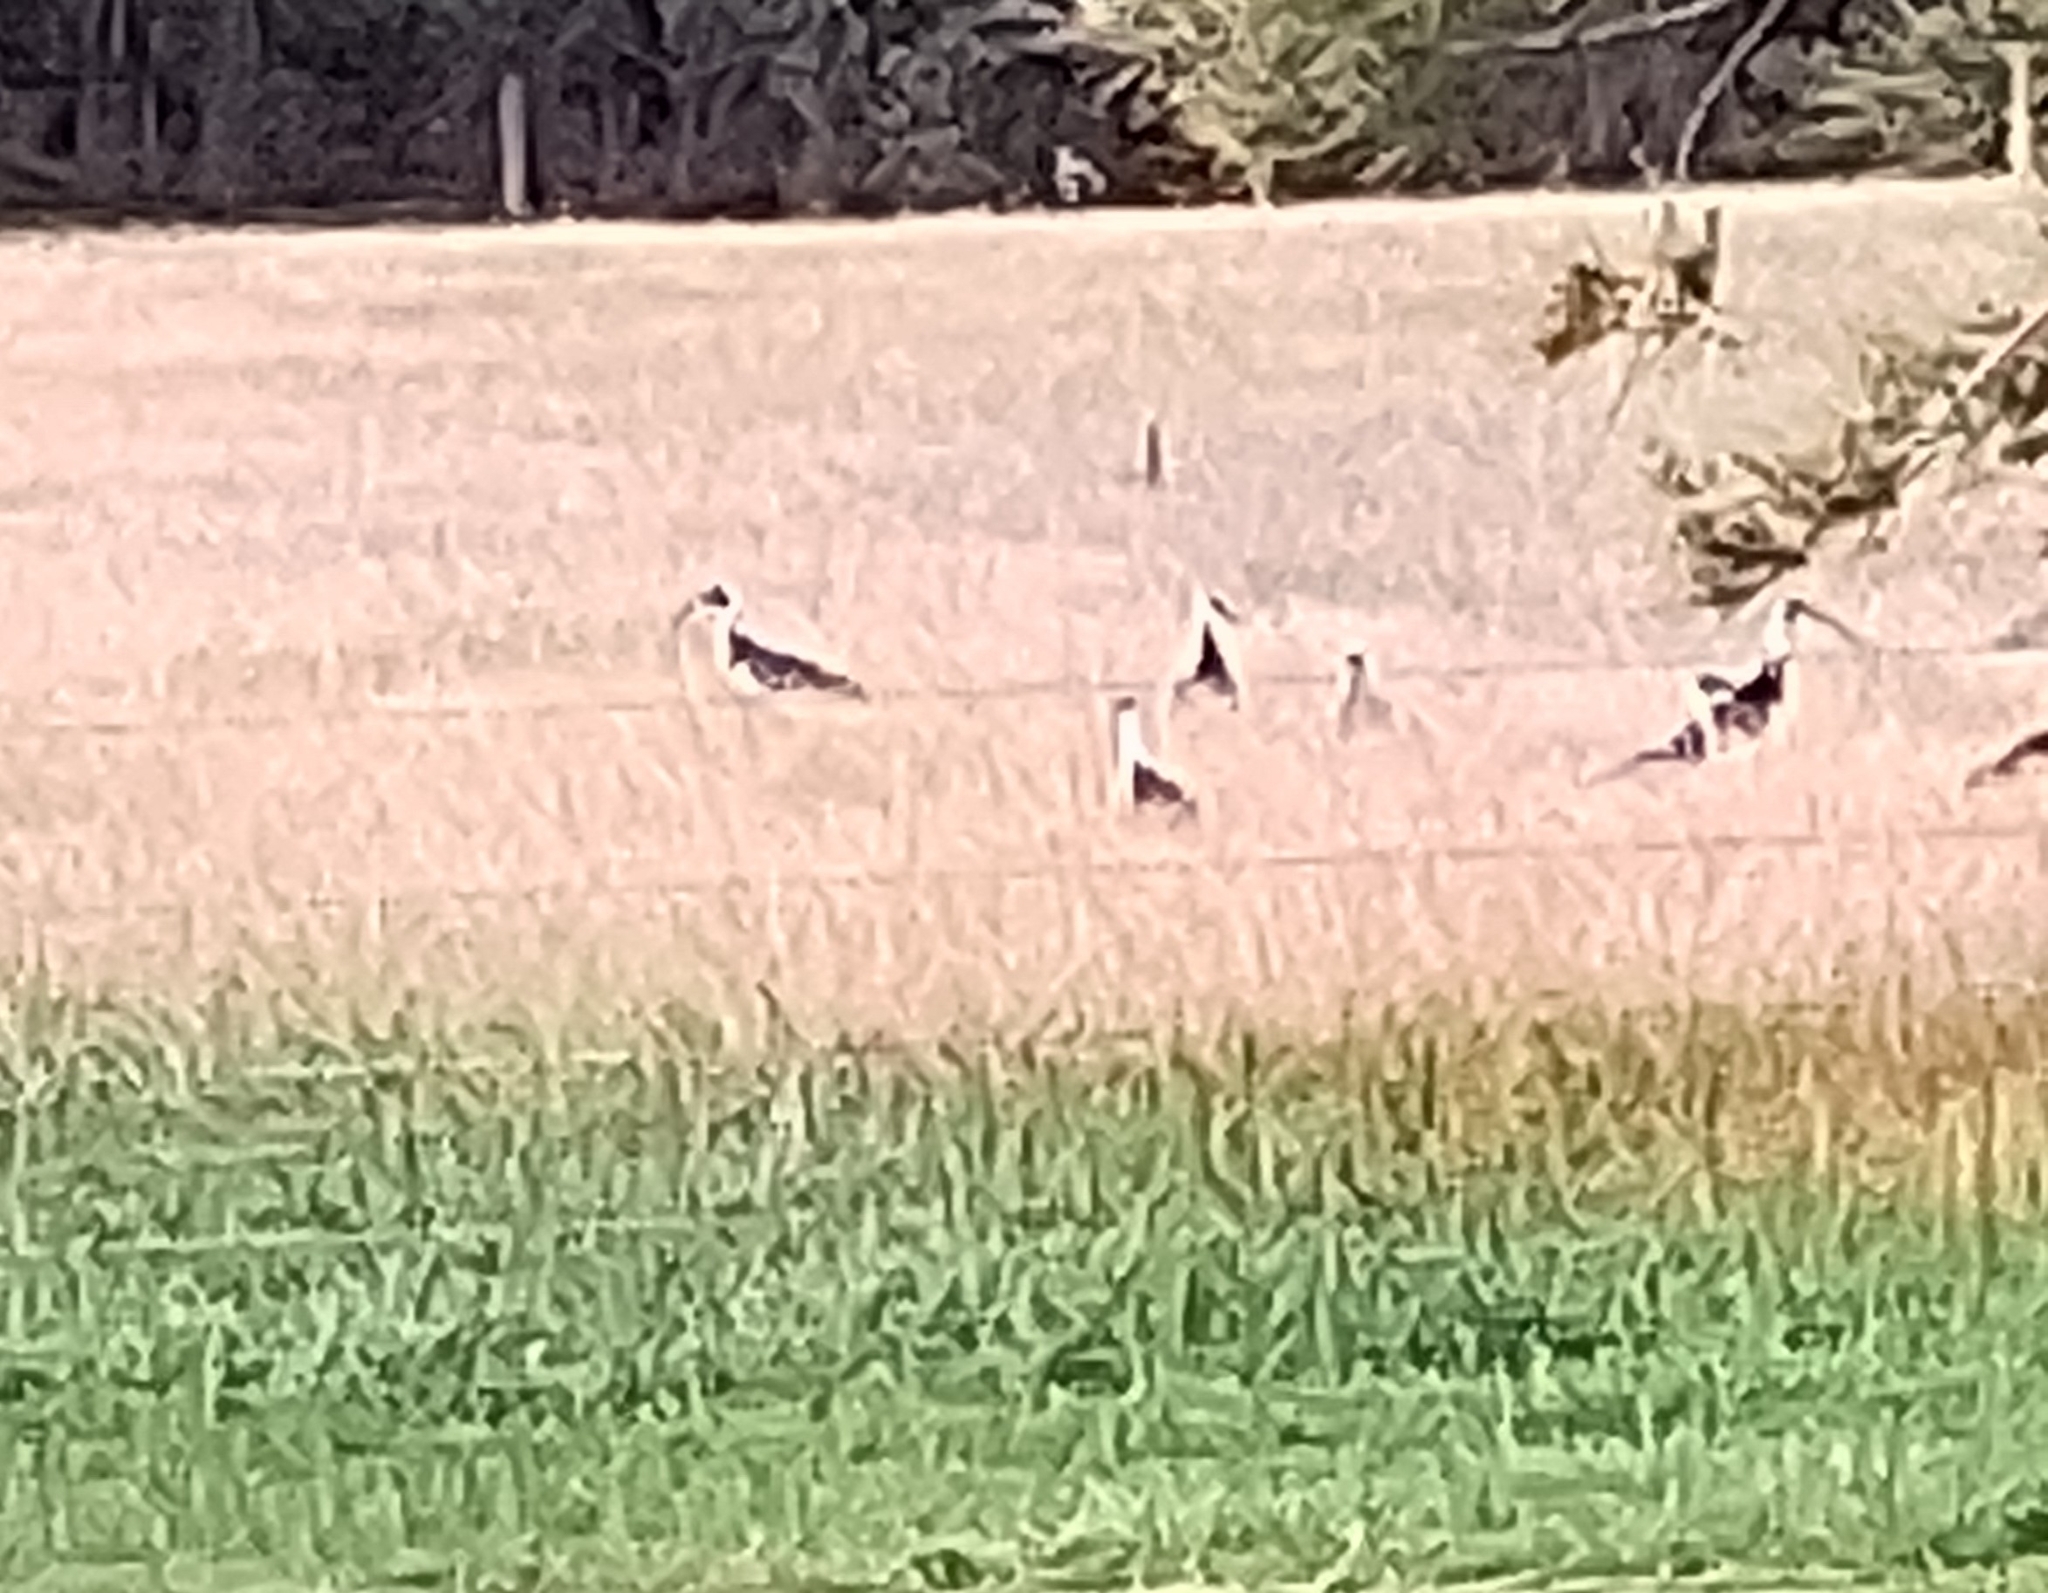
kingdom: Animalia
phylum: Chordata
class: Aves
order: Pelecaniformes
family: Threskiornithidae
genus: Threskiornis
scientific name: Threskiornis spinicollis
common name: Straw-necked ibis
